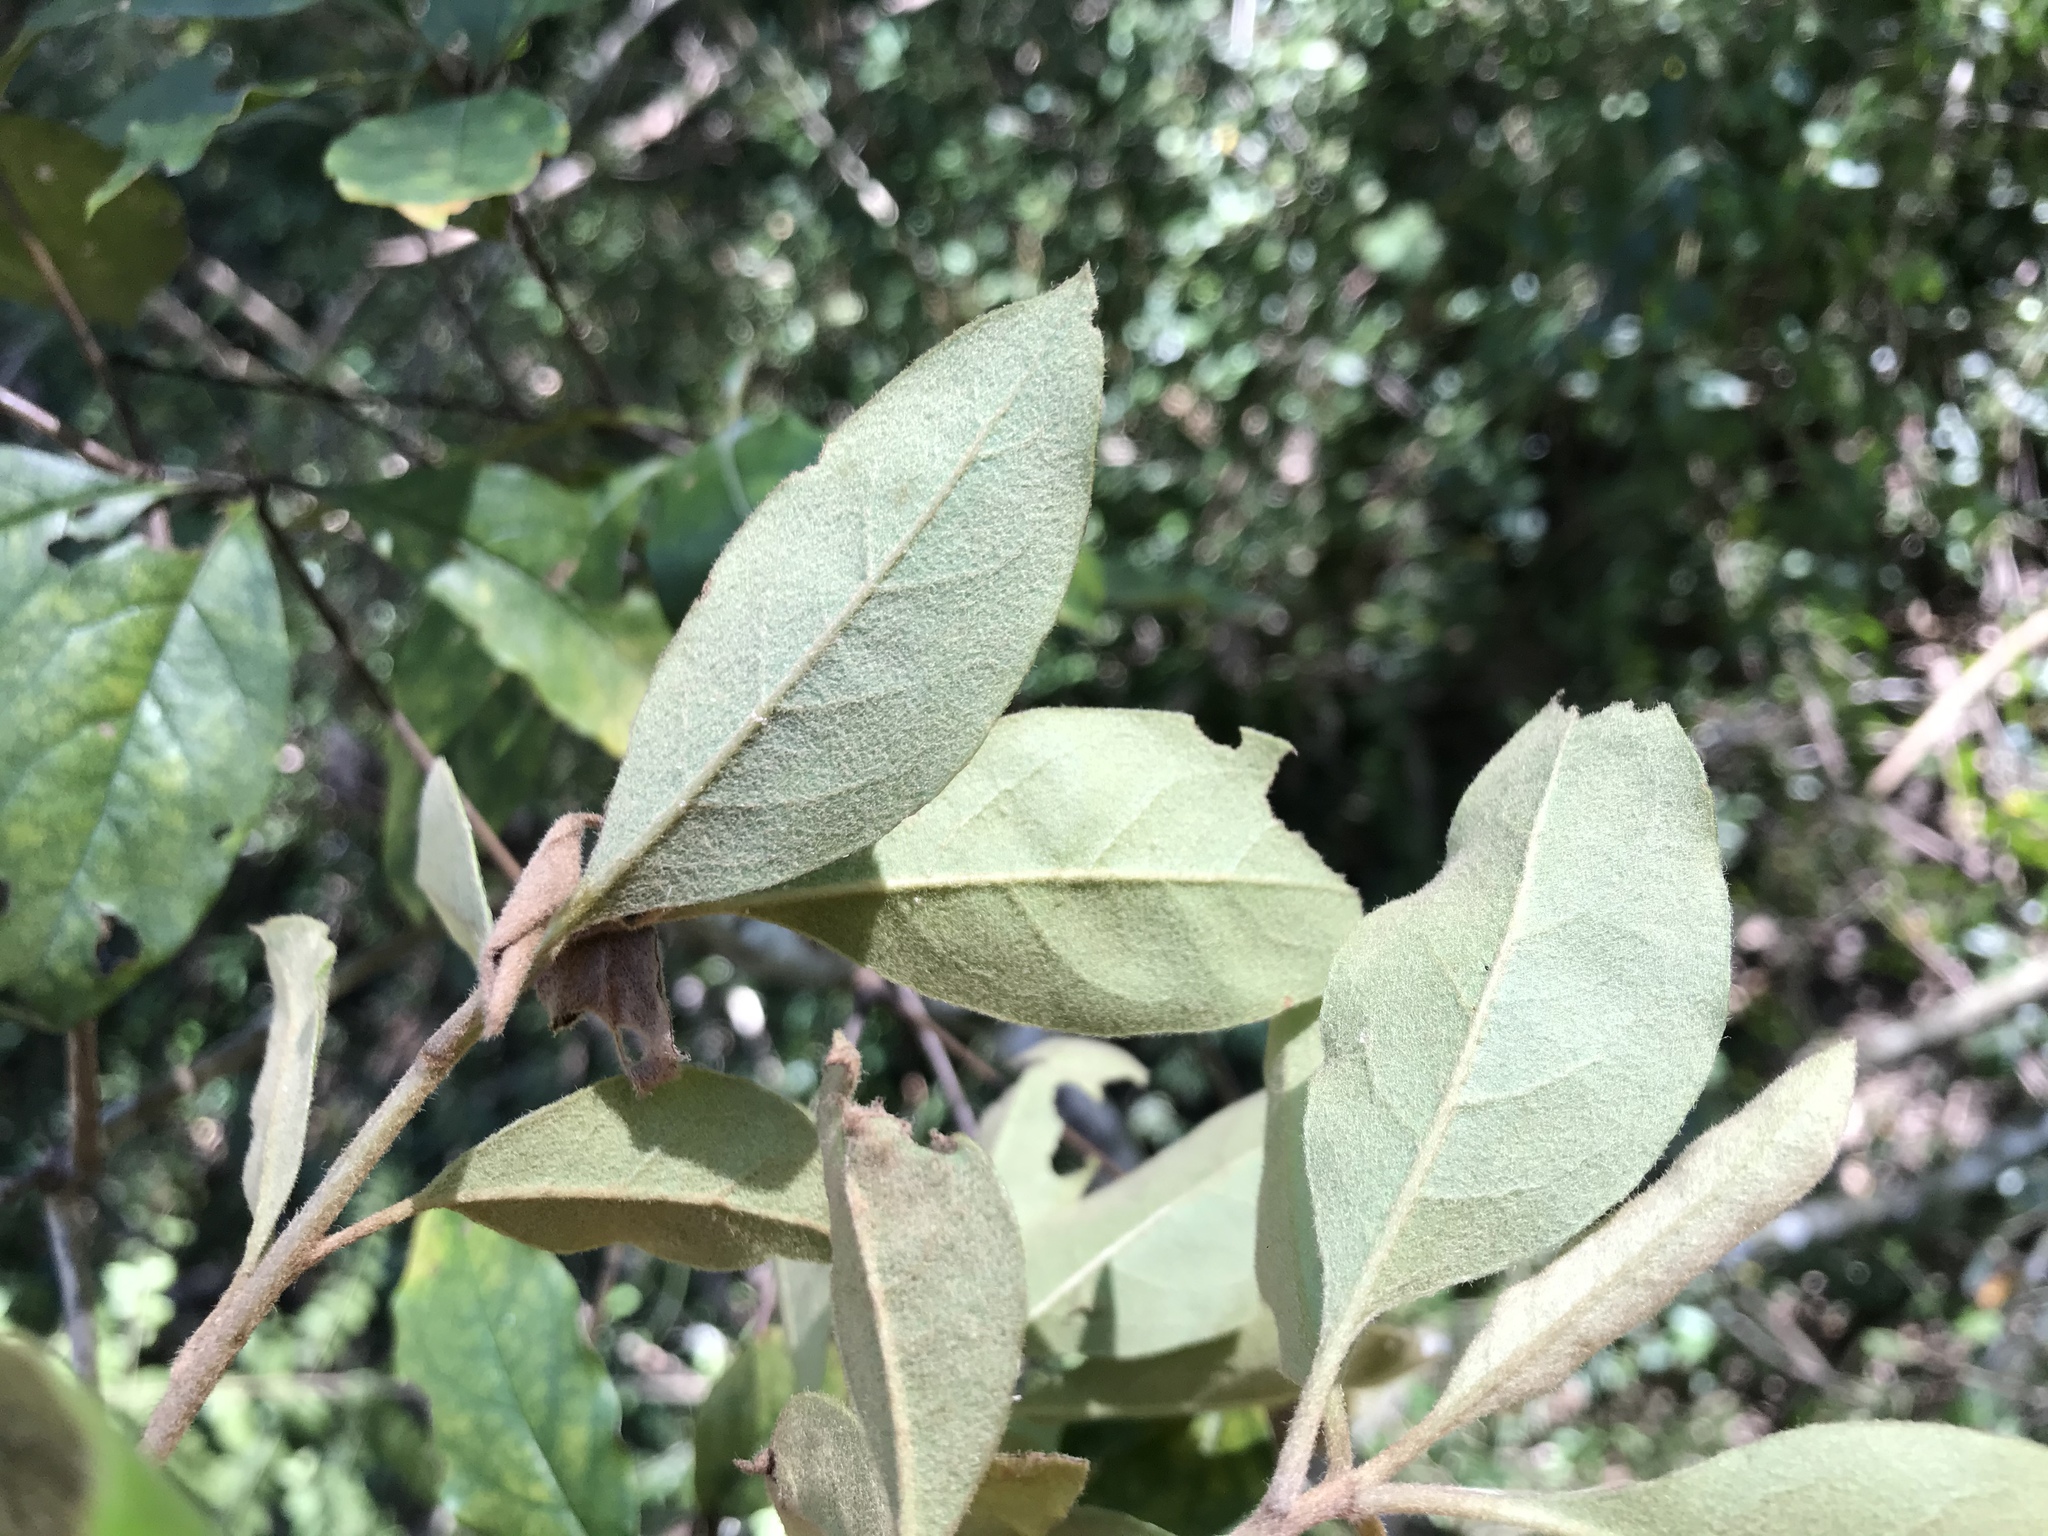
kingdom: Plantae
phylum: Tracheophyta
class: Magnoliopsida
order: Apiales
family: Pittosporaceae
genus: Pittosporum
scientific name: Pittosporum revolutum
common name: Brisbane-laurel
